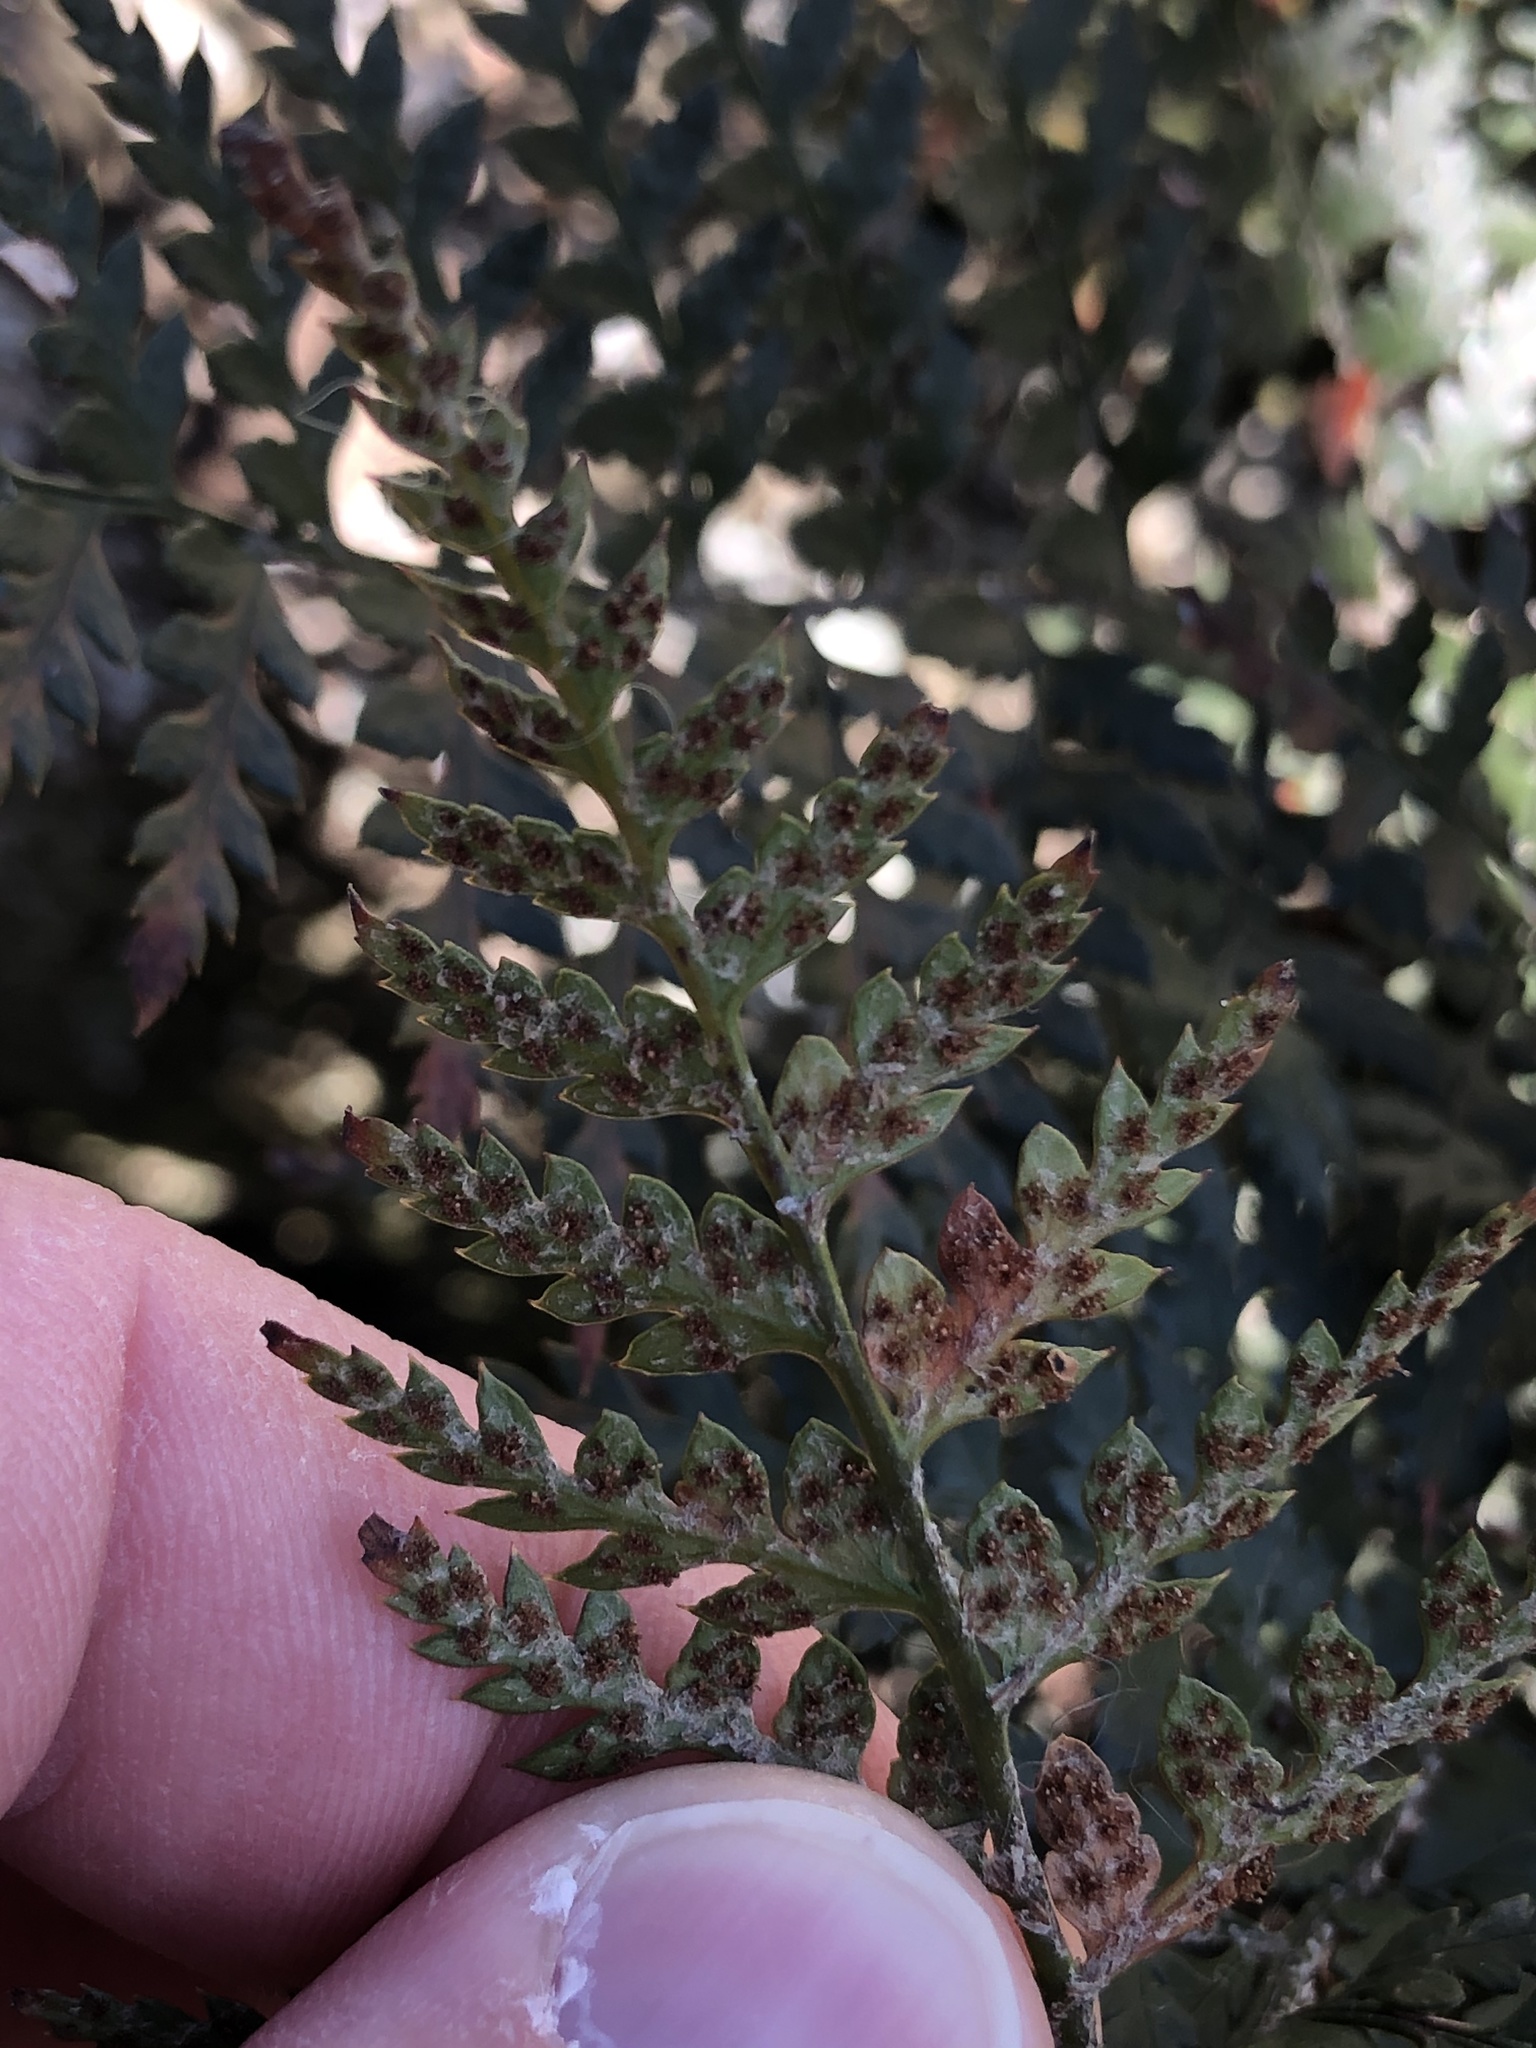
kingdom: Plantae
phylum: Tracheophyta
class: Polypodiopsida
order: Polypodiales
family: Dryopteridaceae
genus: Polystichum
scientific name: Polystichum oculatum
